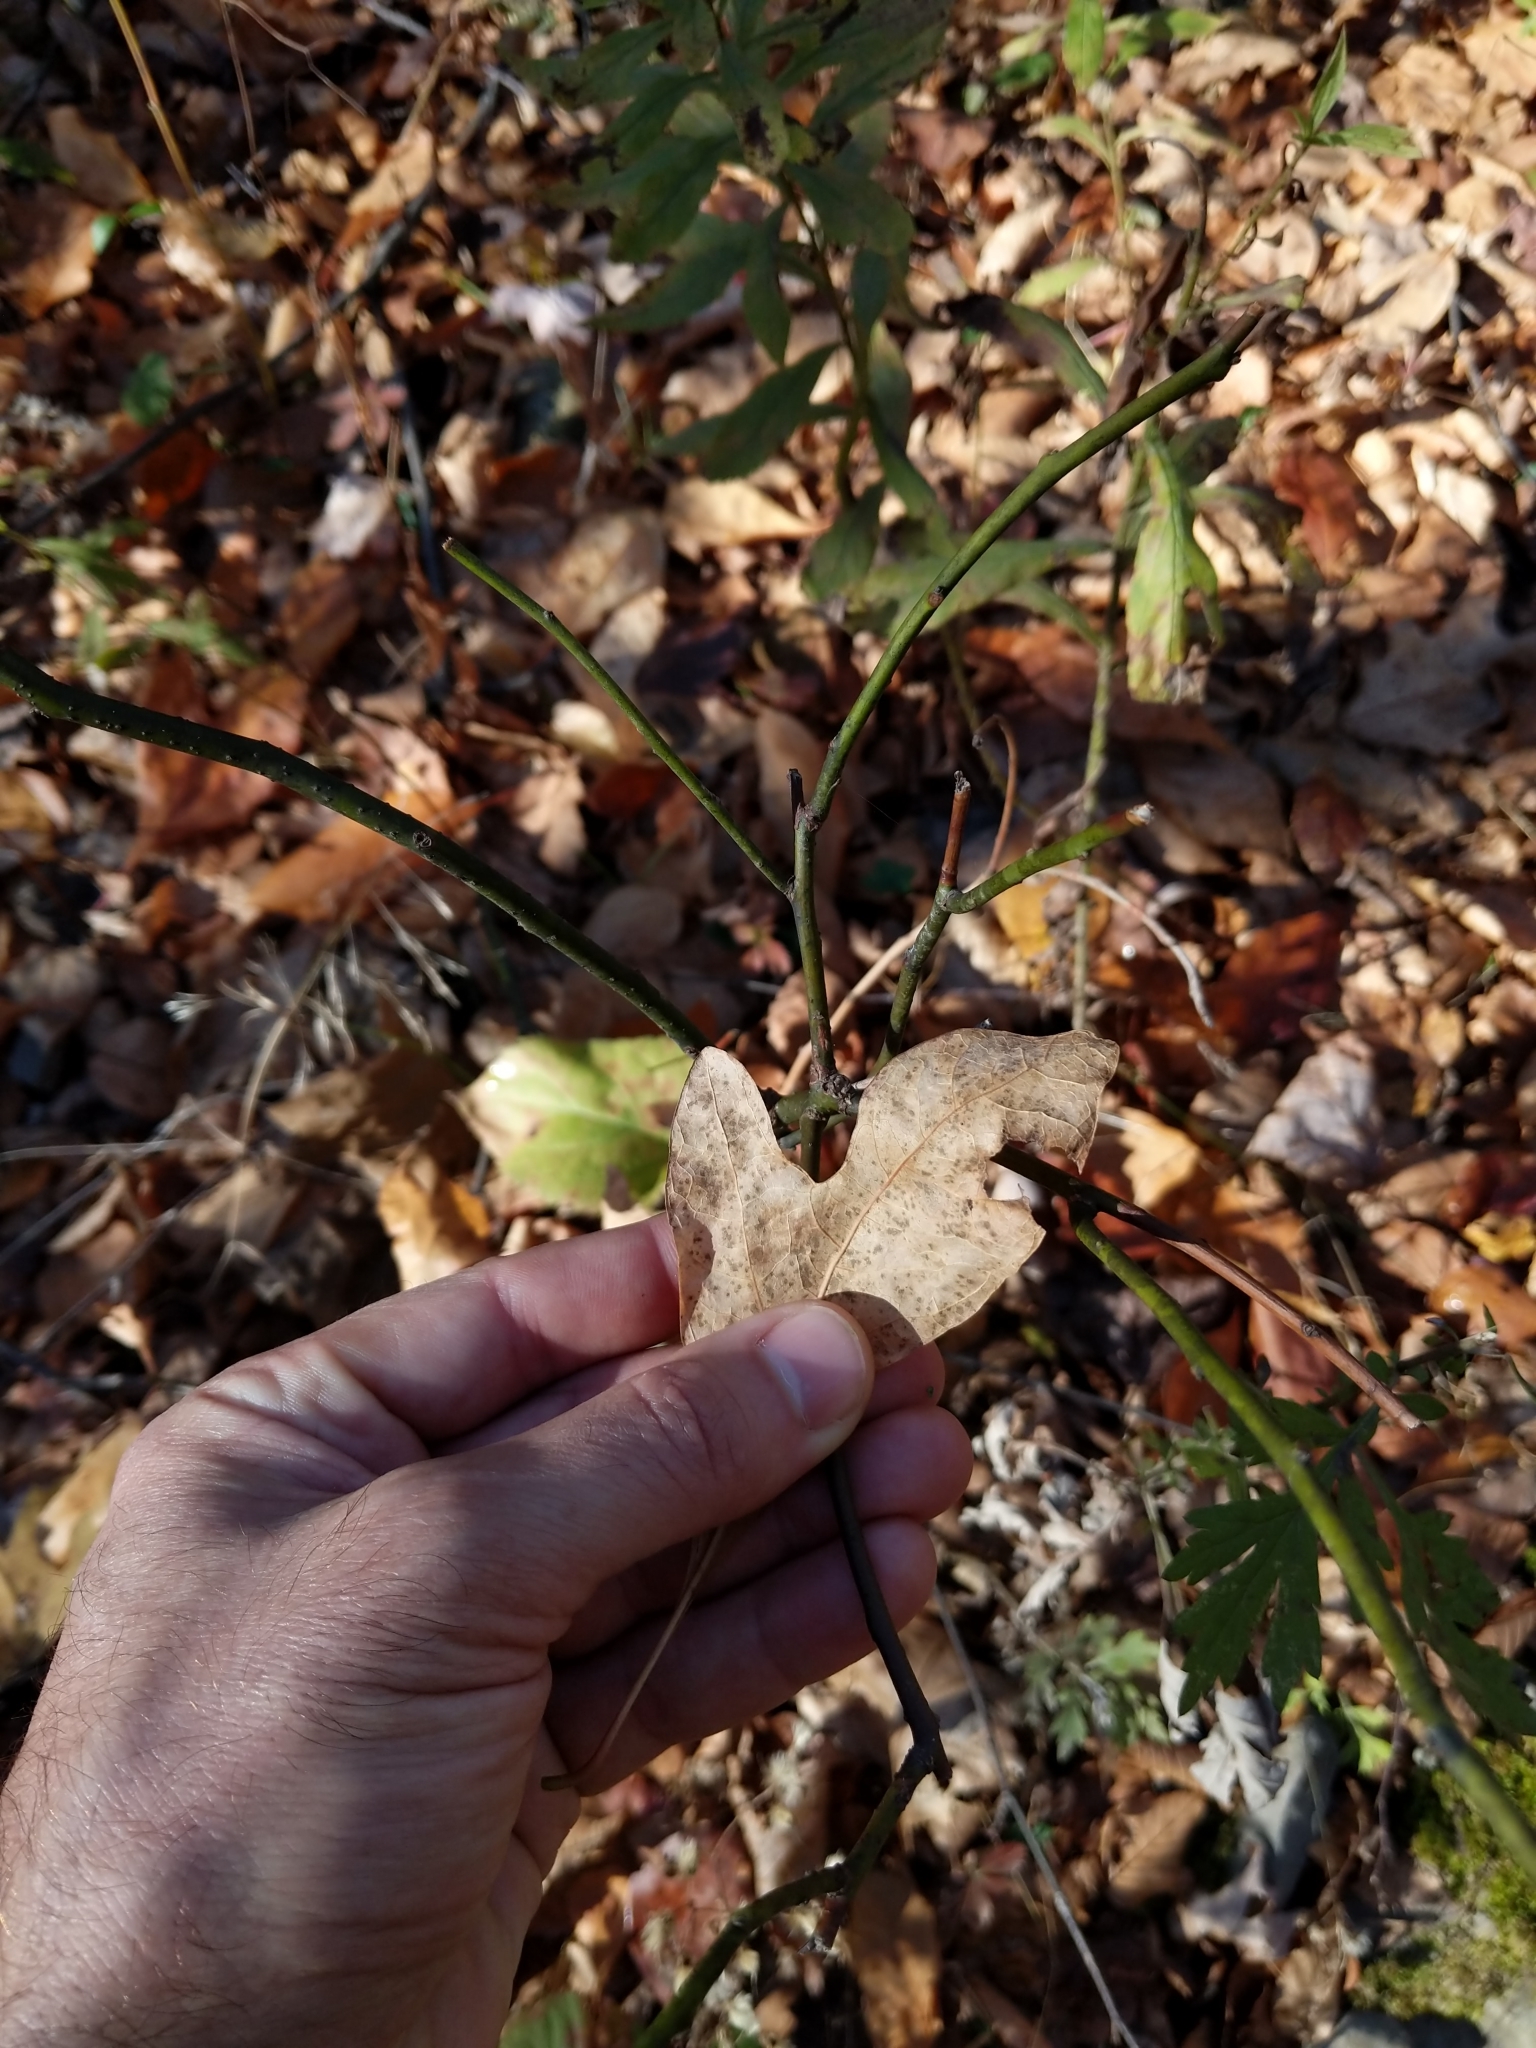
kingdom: Plantae
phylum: Tracheophyta
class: Magnoliopsida
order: Laurales
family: Lauraceae
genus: Sassafras
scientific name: Sassafras albidum
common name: Sassafras
